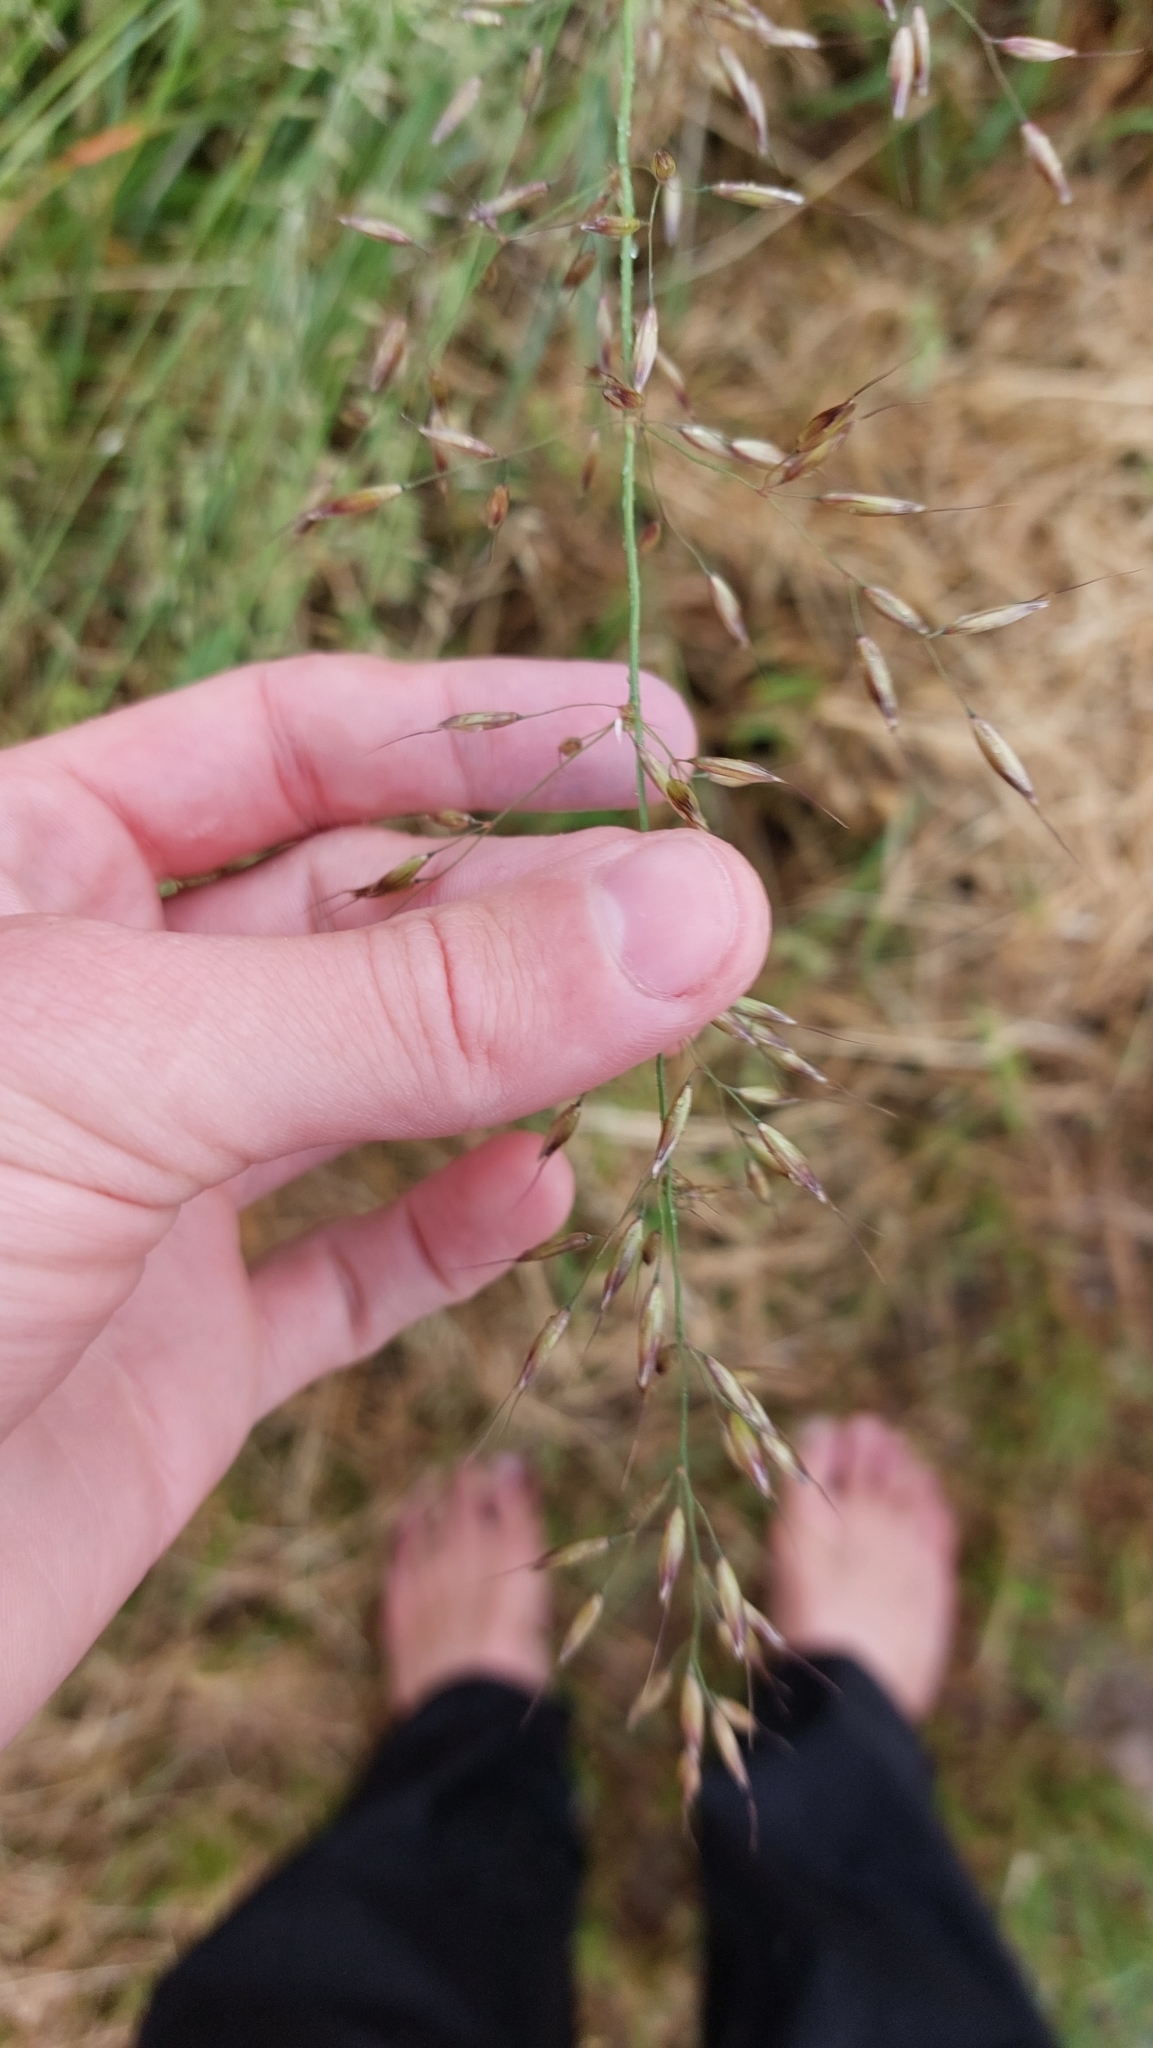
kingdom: Plantae
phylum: Tracheophyta
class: Liliopsida
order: Poales
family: Poaceae
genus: Arrhenatherum
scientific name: Arrhenatherum elatius
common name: Tall oatgrass
